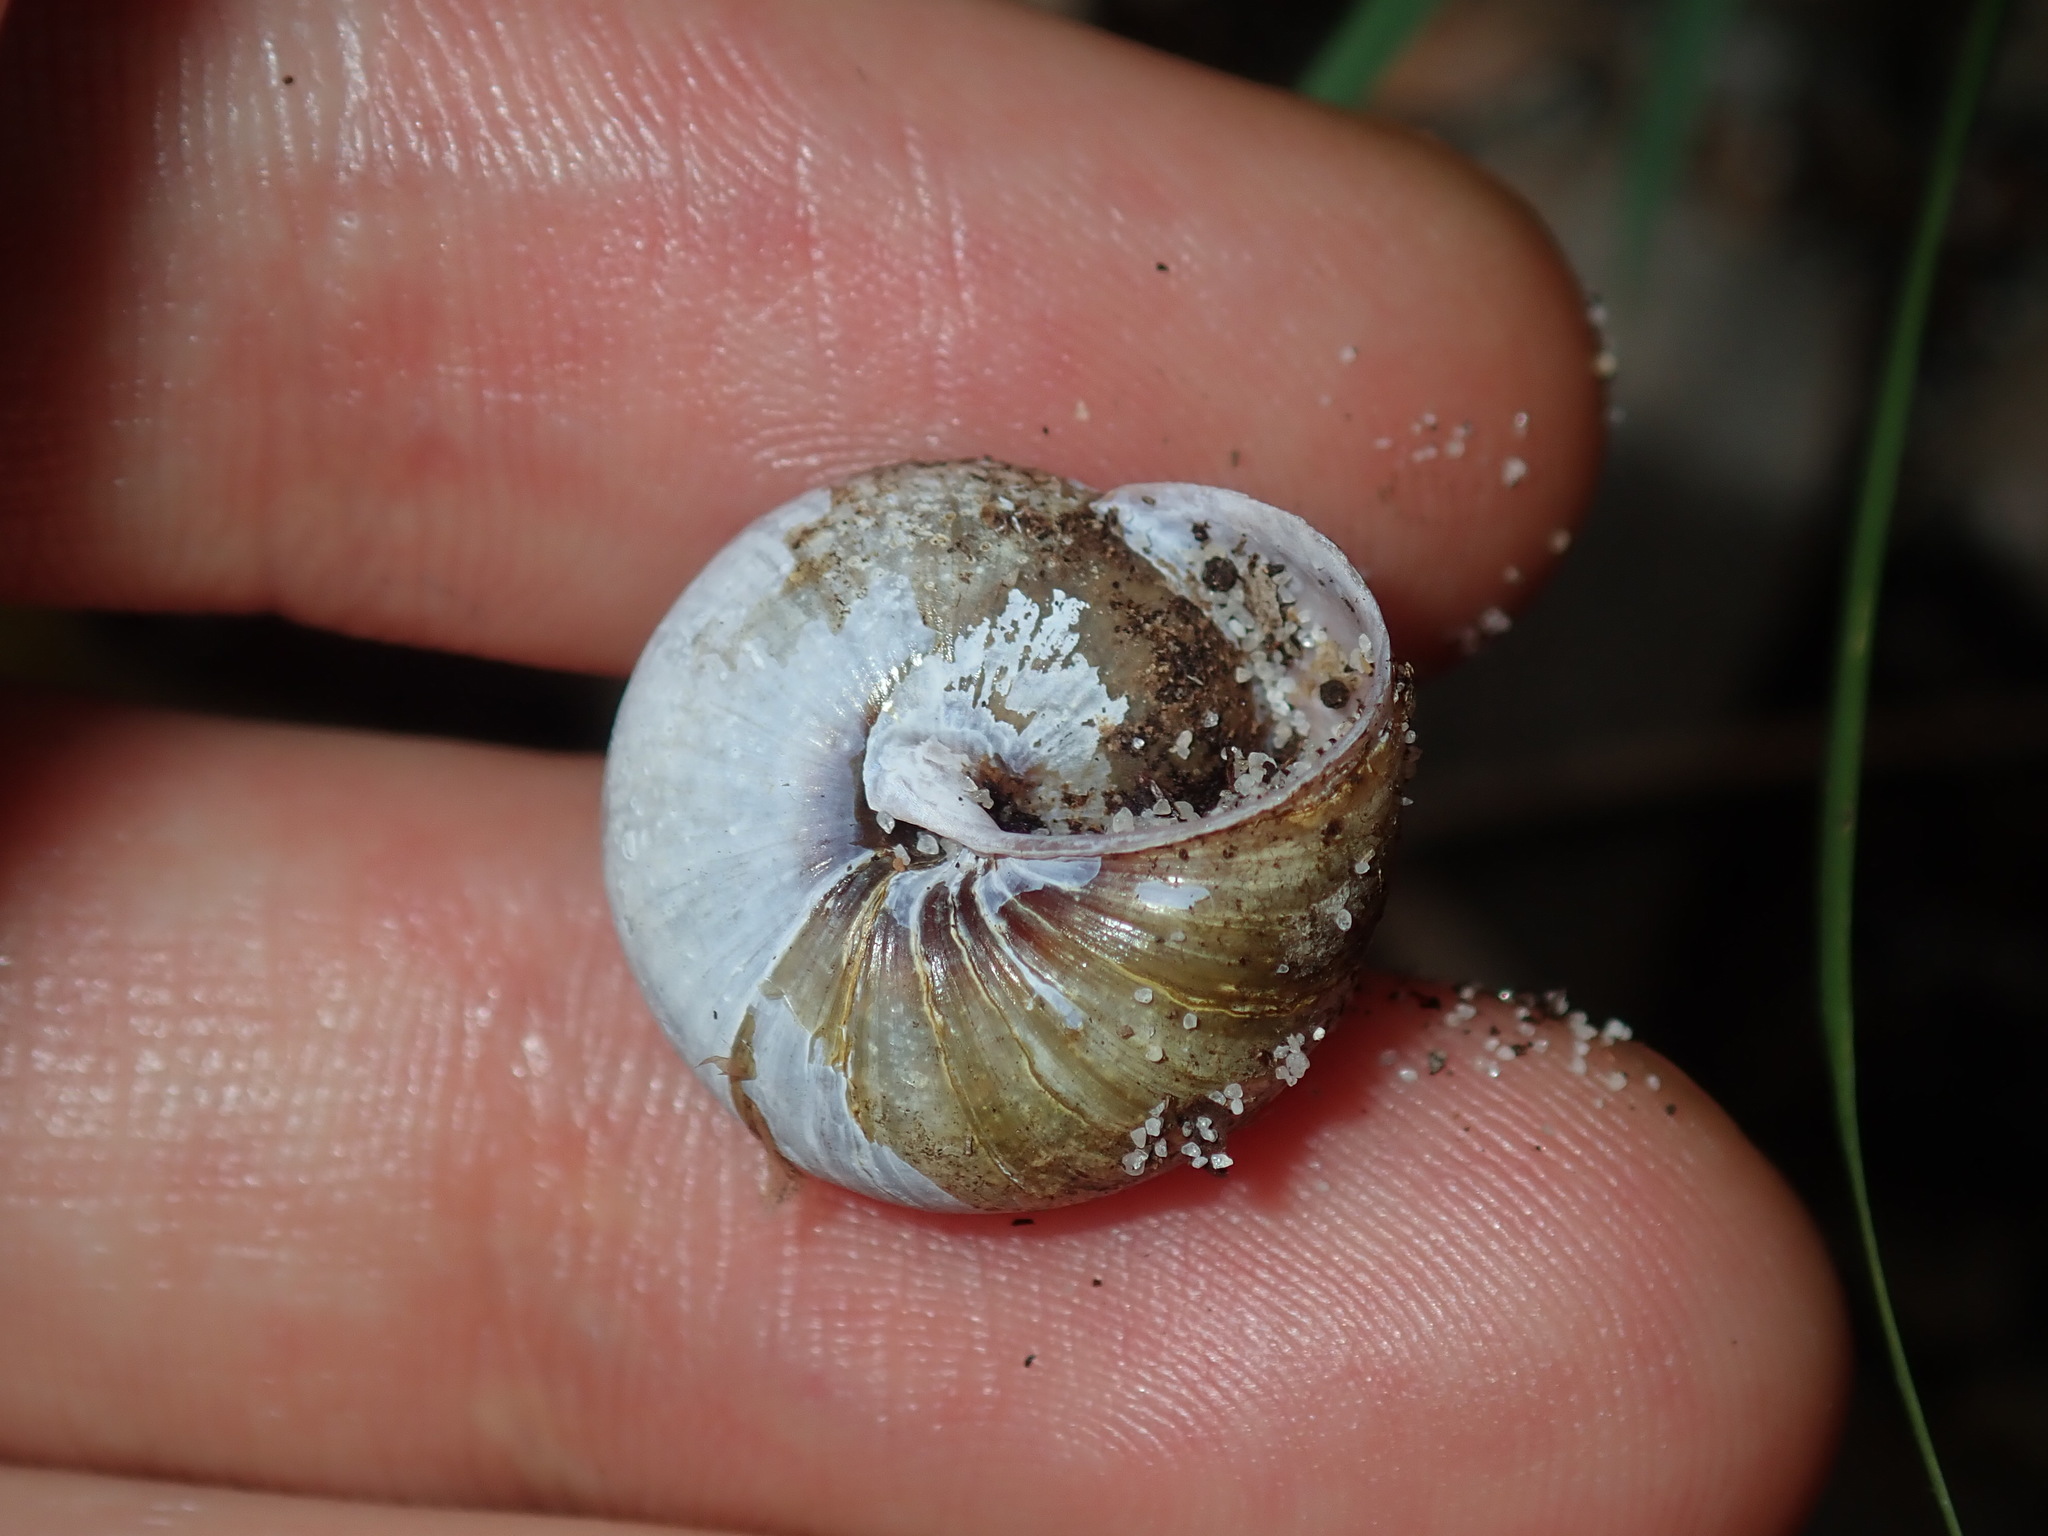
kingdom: Animalia
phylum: Mollusca
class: Gastropoda
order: Stylommatophora
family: Camaenidae
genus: Galadistes
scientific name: Galadistes akubra
